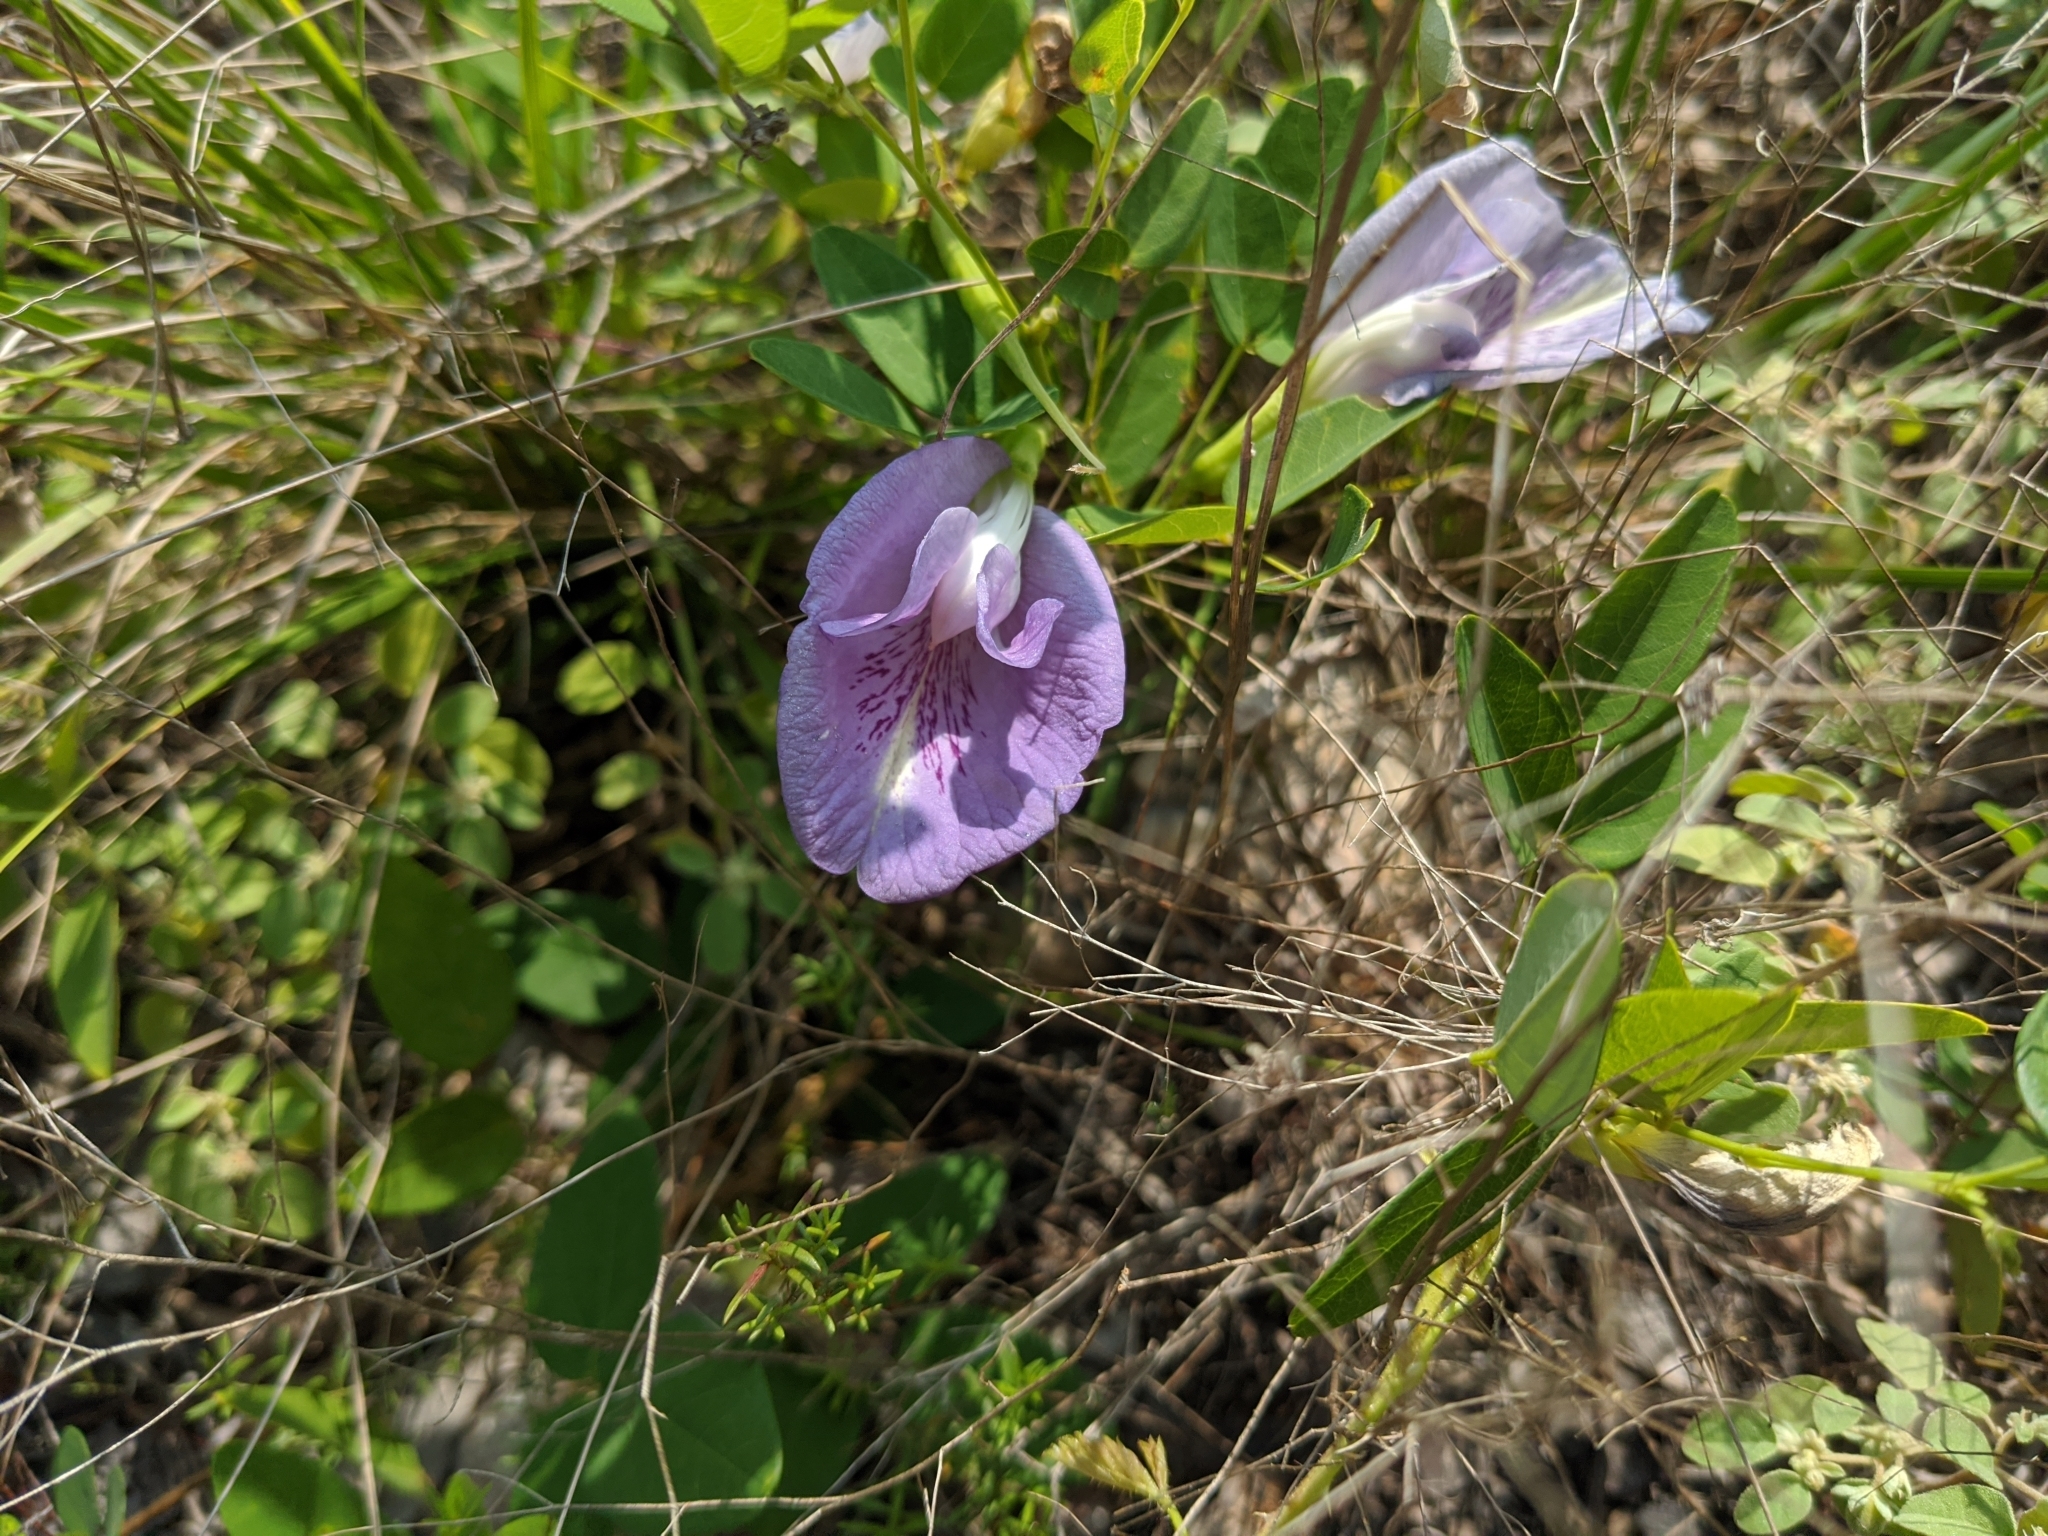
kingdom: Plantae
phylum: Tracheophyta
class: Magnoliopsida
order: Fabales
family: Fabaceae
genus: Clitoria
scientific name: Clitoria mariana
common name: Butterfly-pea
